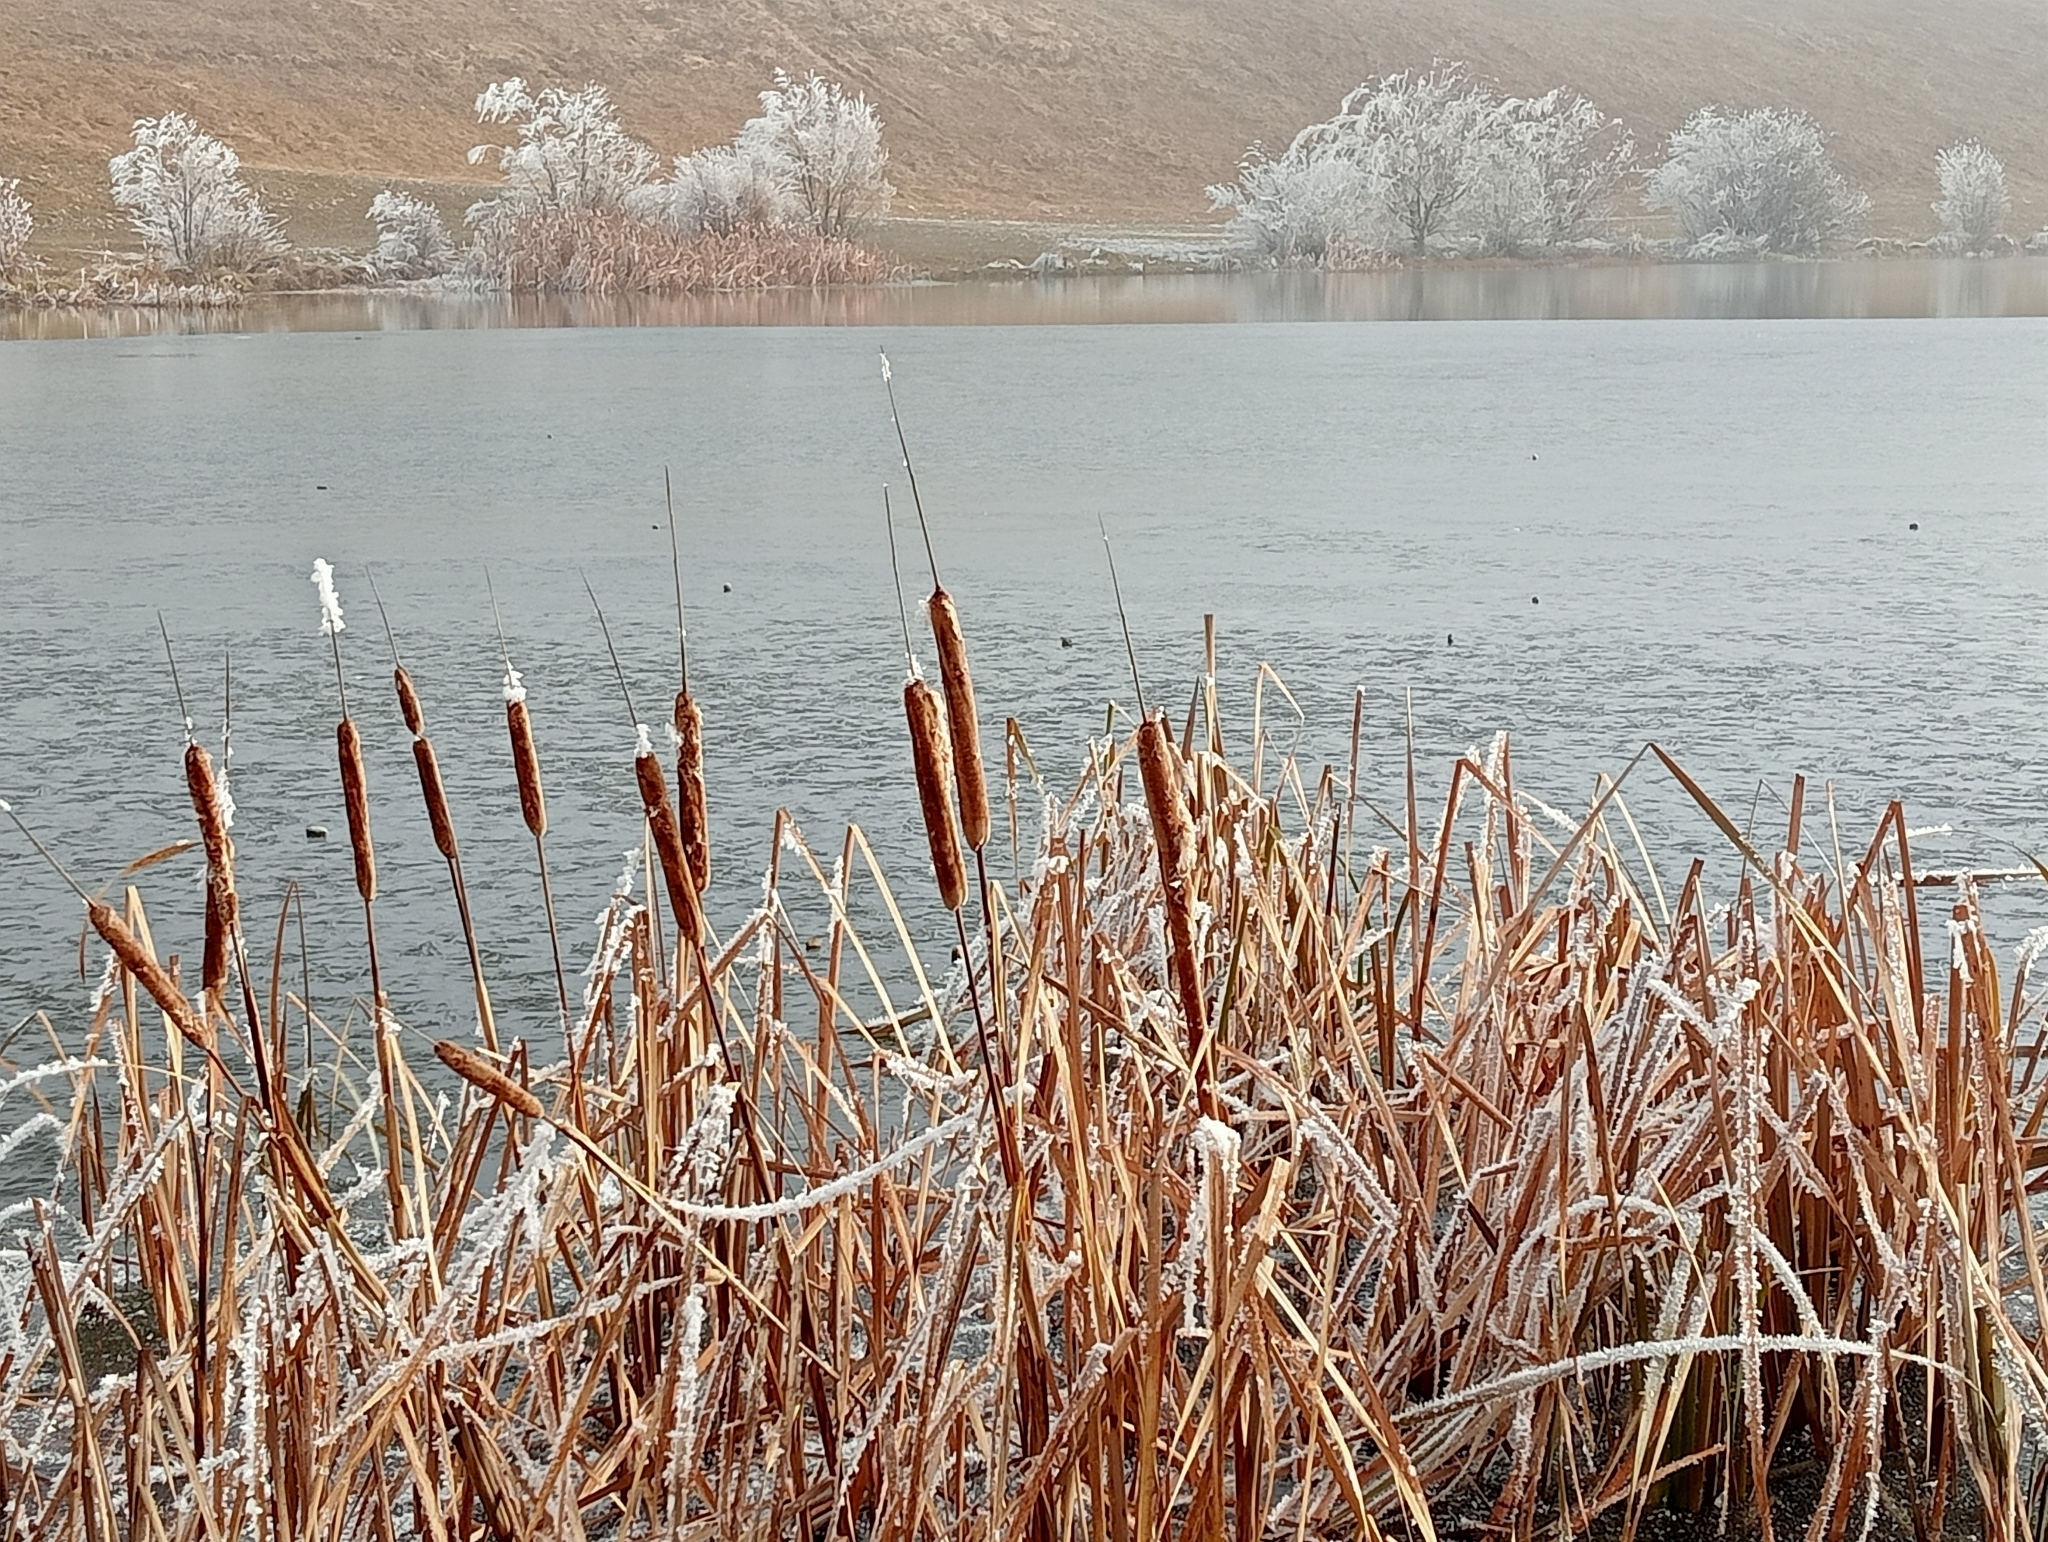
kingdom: Plantae
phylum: Tracheophyta
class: Liliopsida
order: Poales
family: Typhaceae
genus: Typha
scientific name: Typha orientalis
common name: Bullrush
